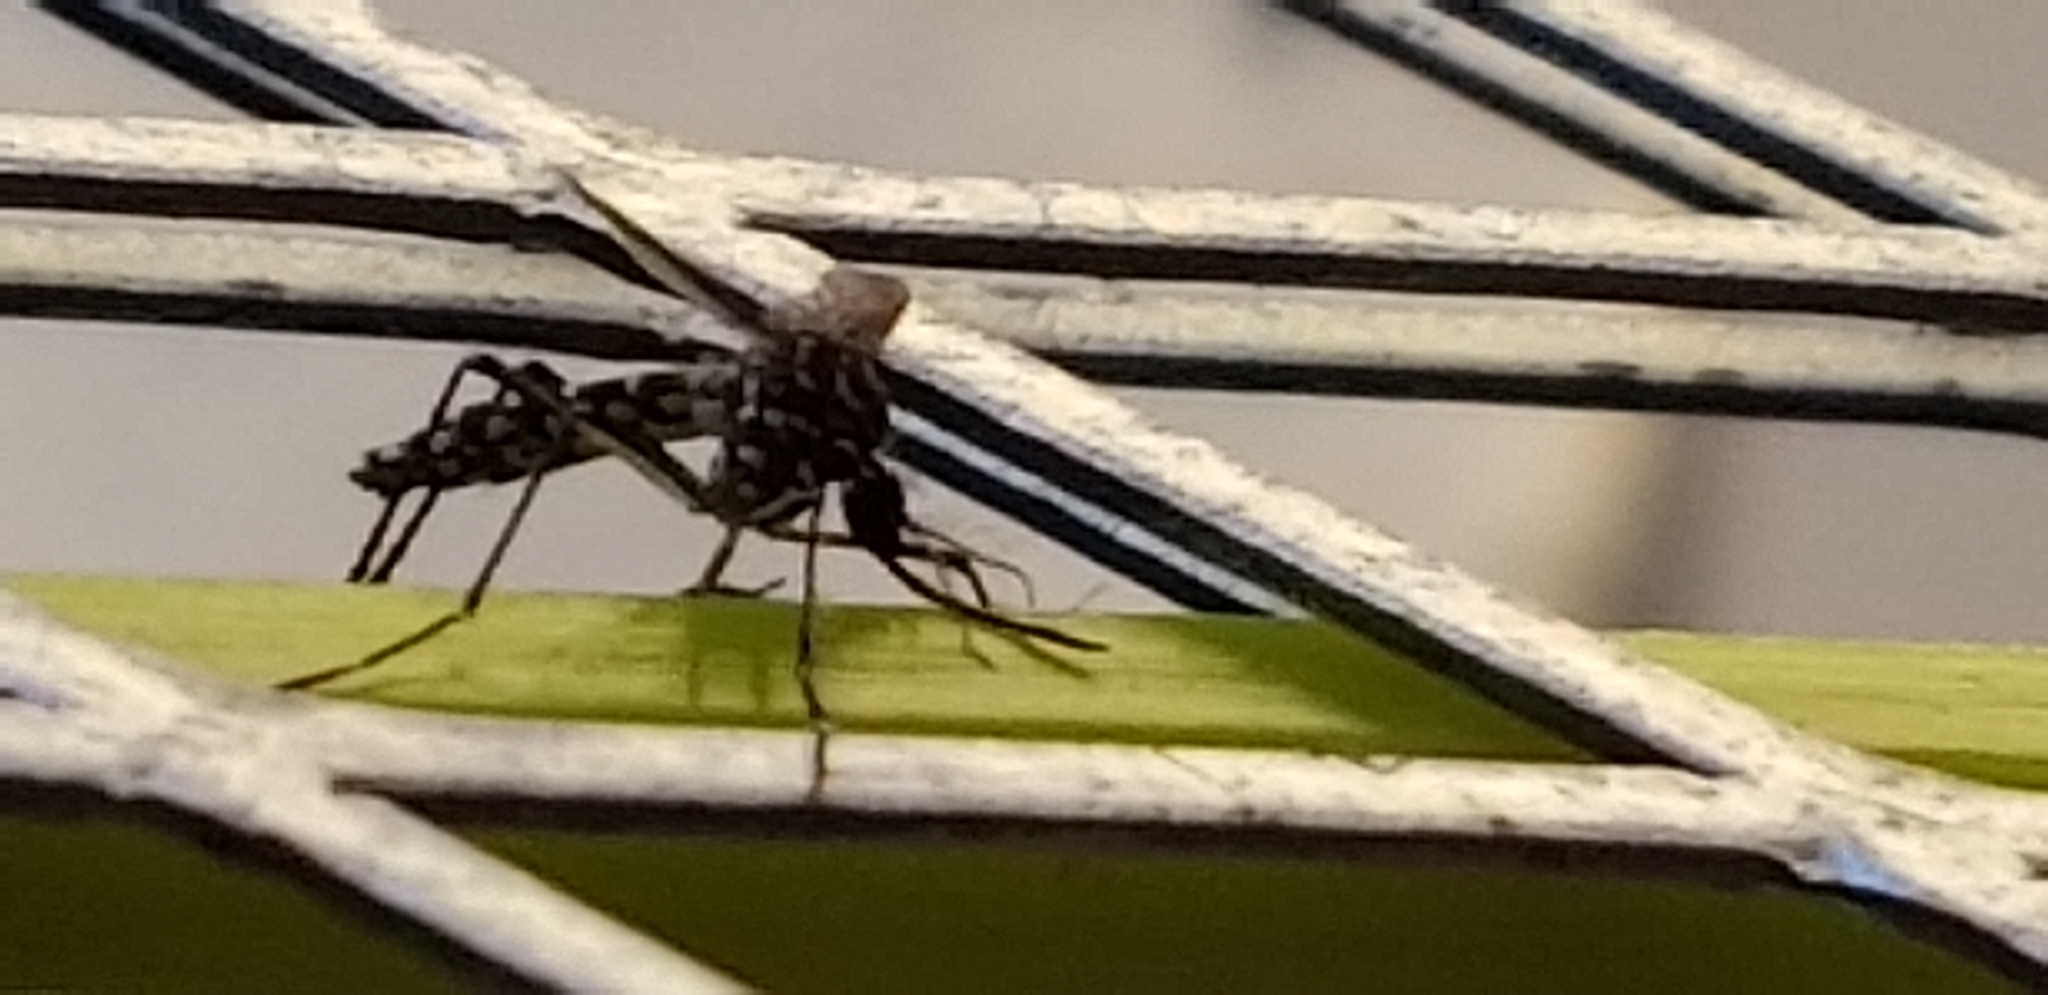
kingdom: Animalia
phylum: Arthropoda
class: Insecta
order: Diptera
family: Culicidae
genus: Aedes
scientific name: Aedes aegypti
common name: Yellow fever mosquito
